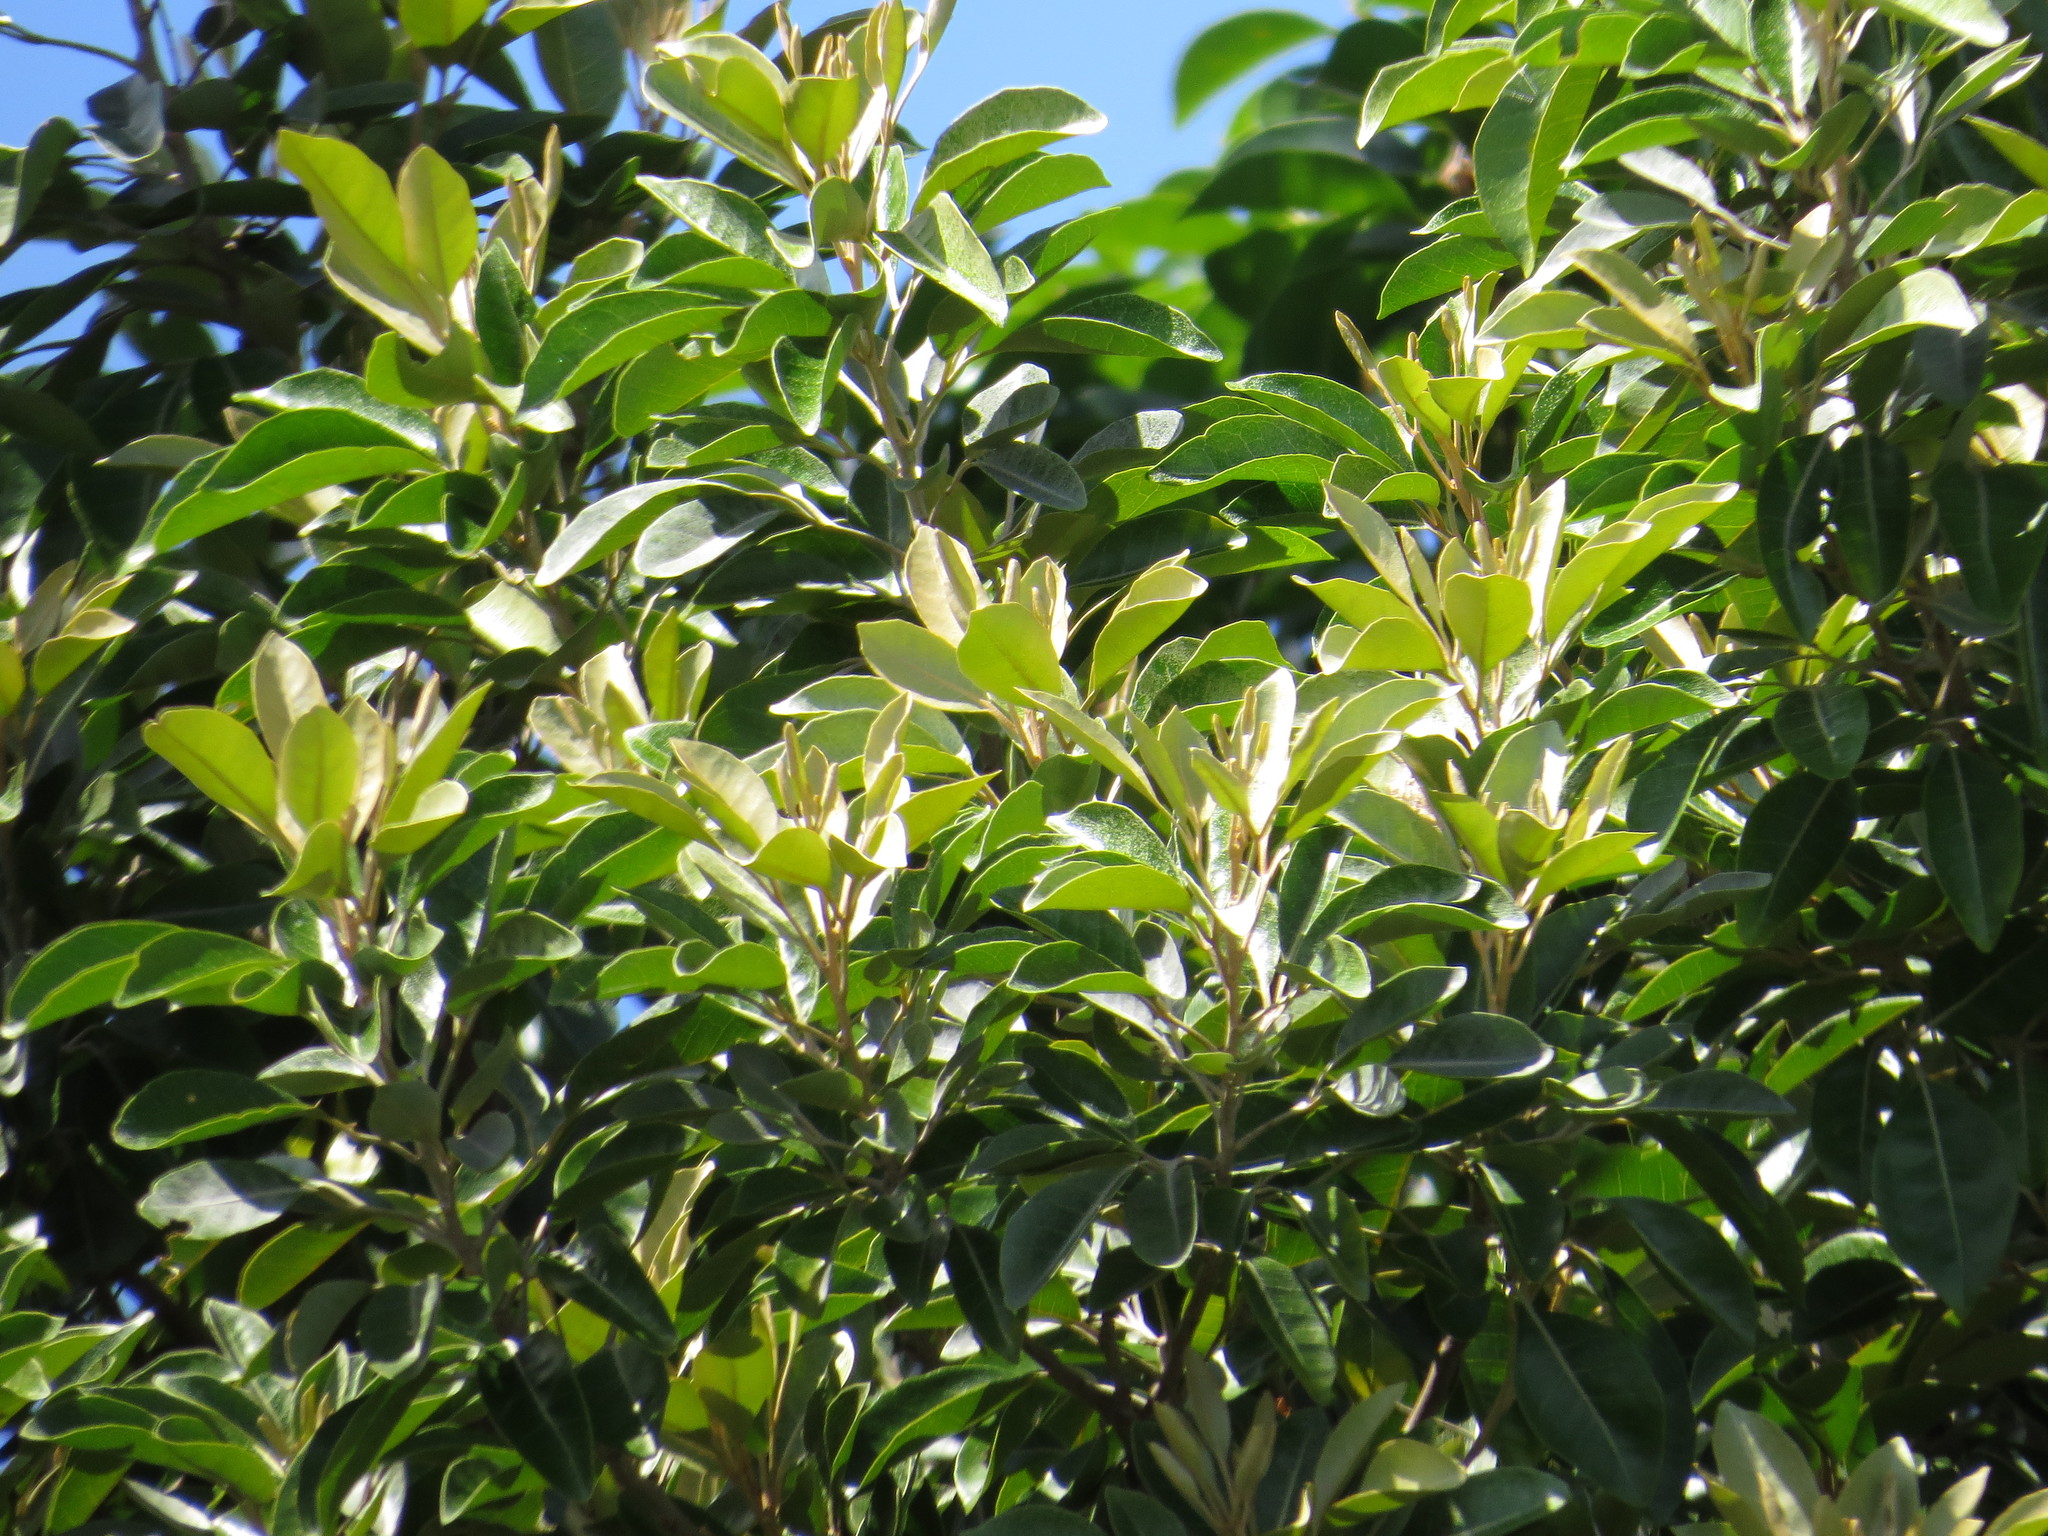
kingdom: Plantae
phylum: Tracheophyta
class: Magnoliopsida
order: Sapindales
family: Meliaceae
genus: Aglaia
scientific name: Aglaia elaeagnoidea
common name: Droopyleaf
